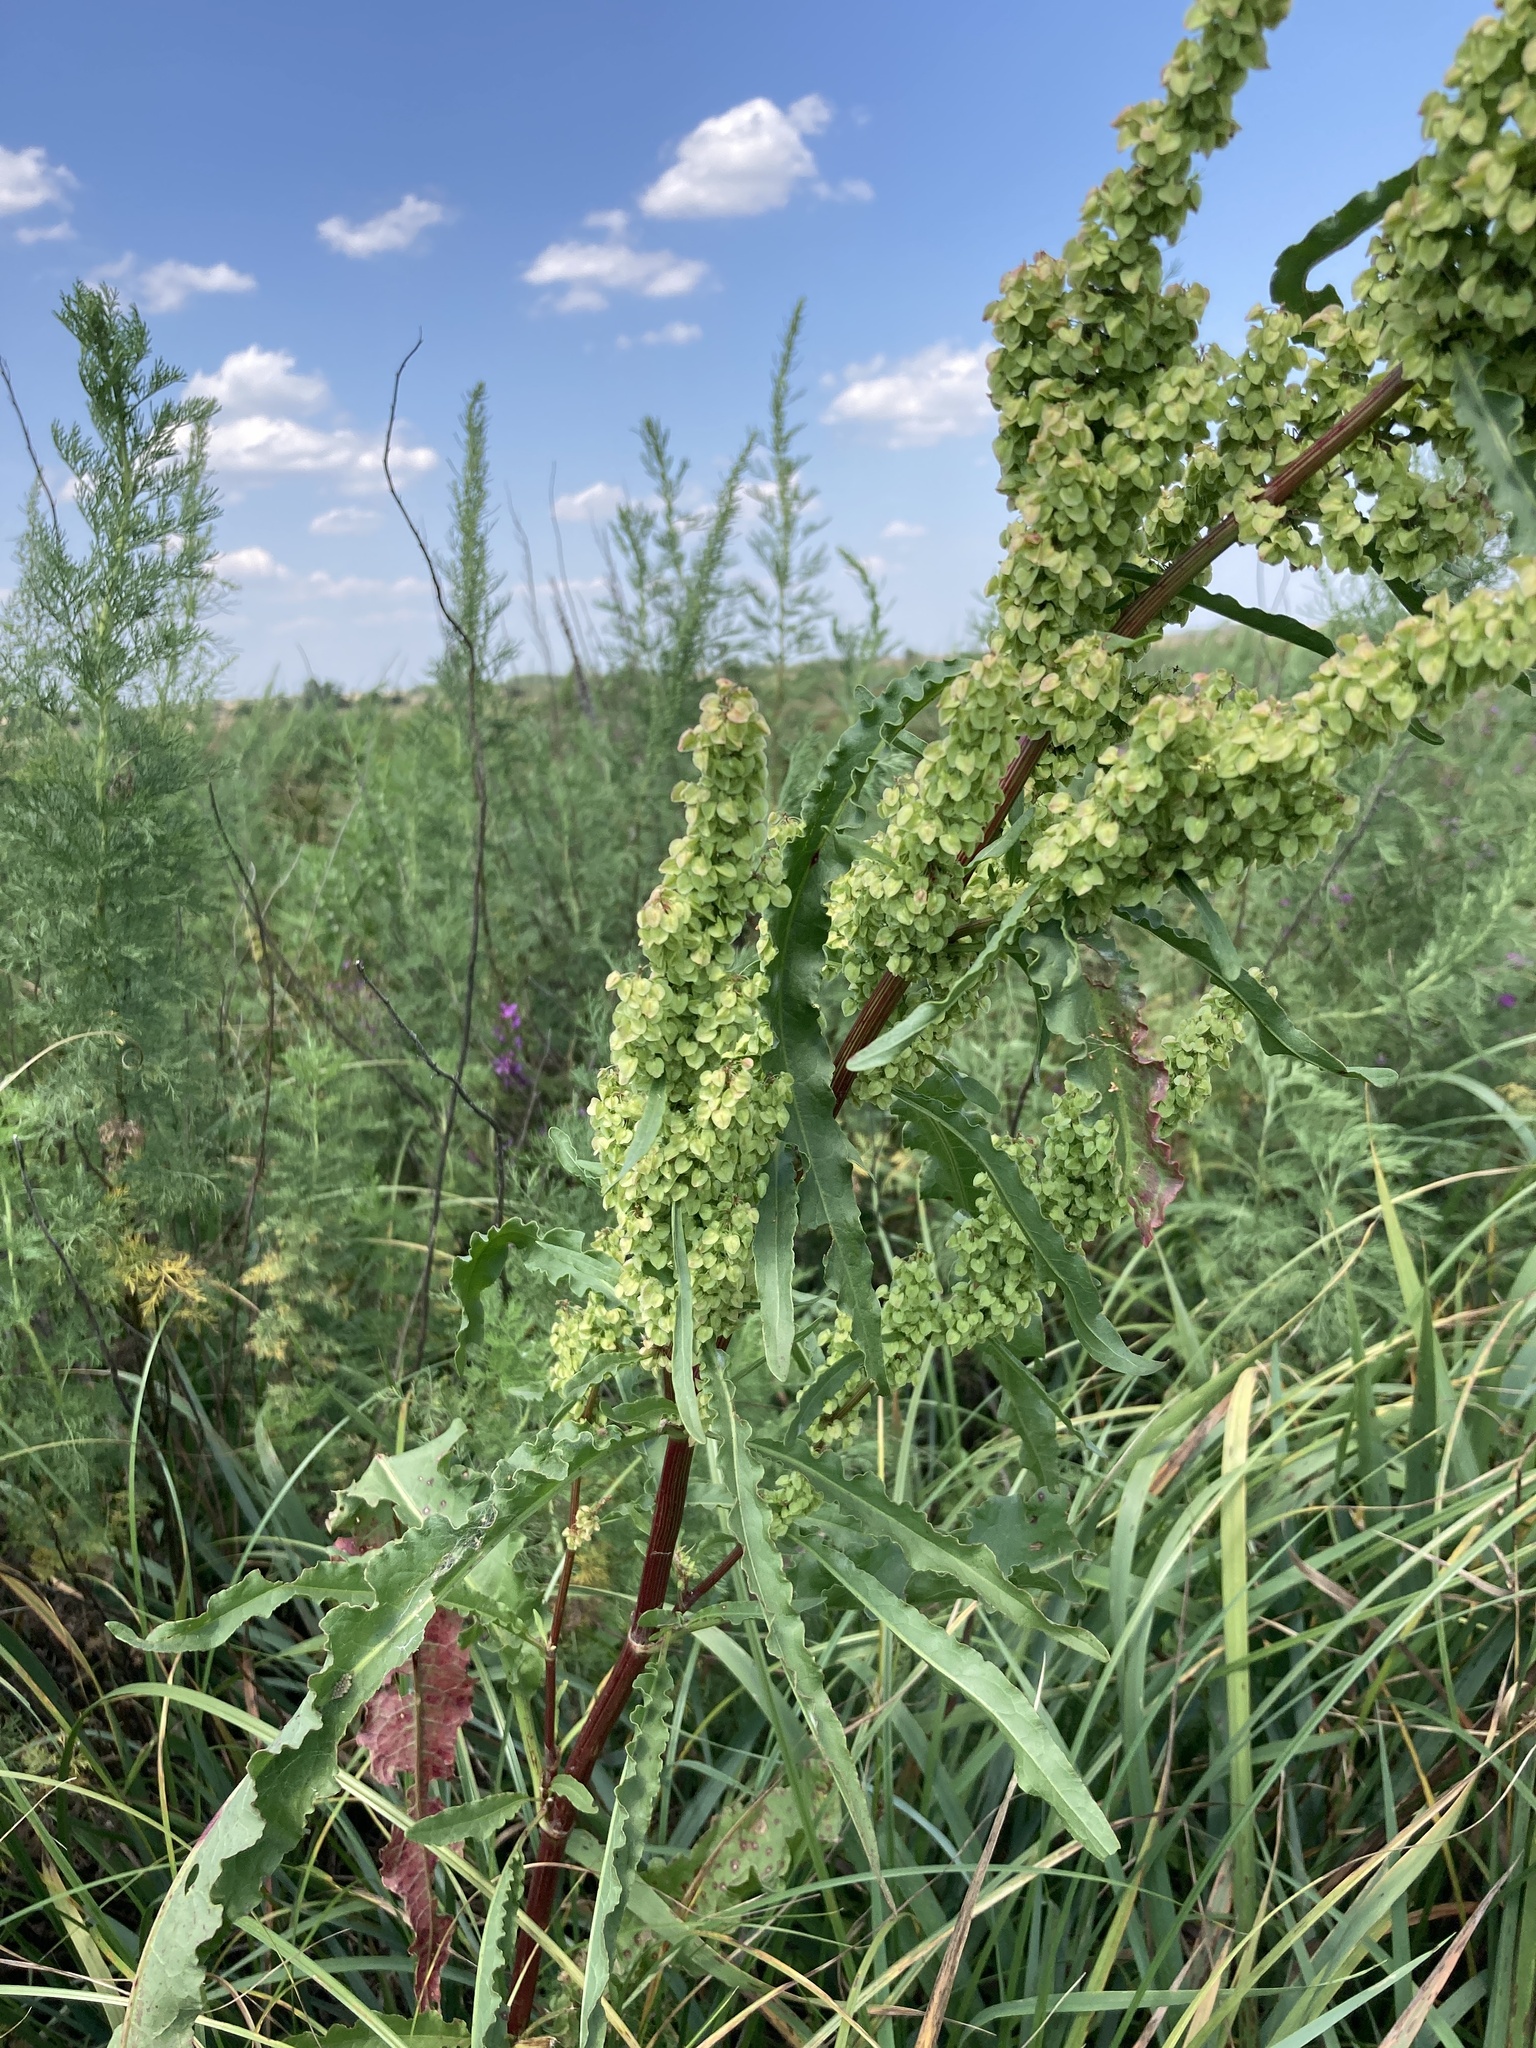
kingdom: Plantae
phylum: Tracheophyta
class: Magnoliopsida
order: Caryophyllales
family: Polygonaceae
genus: Rumex
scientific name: Rumex crispus
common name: Curled dock
